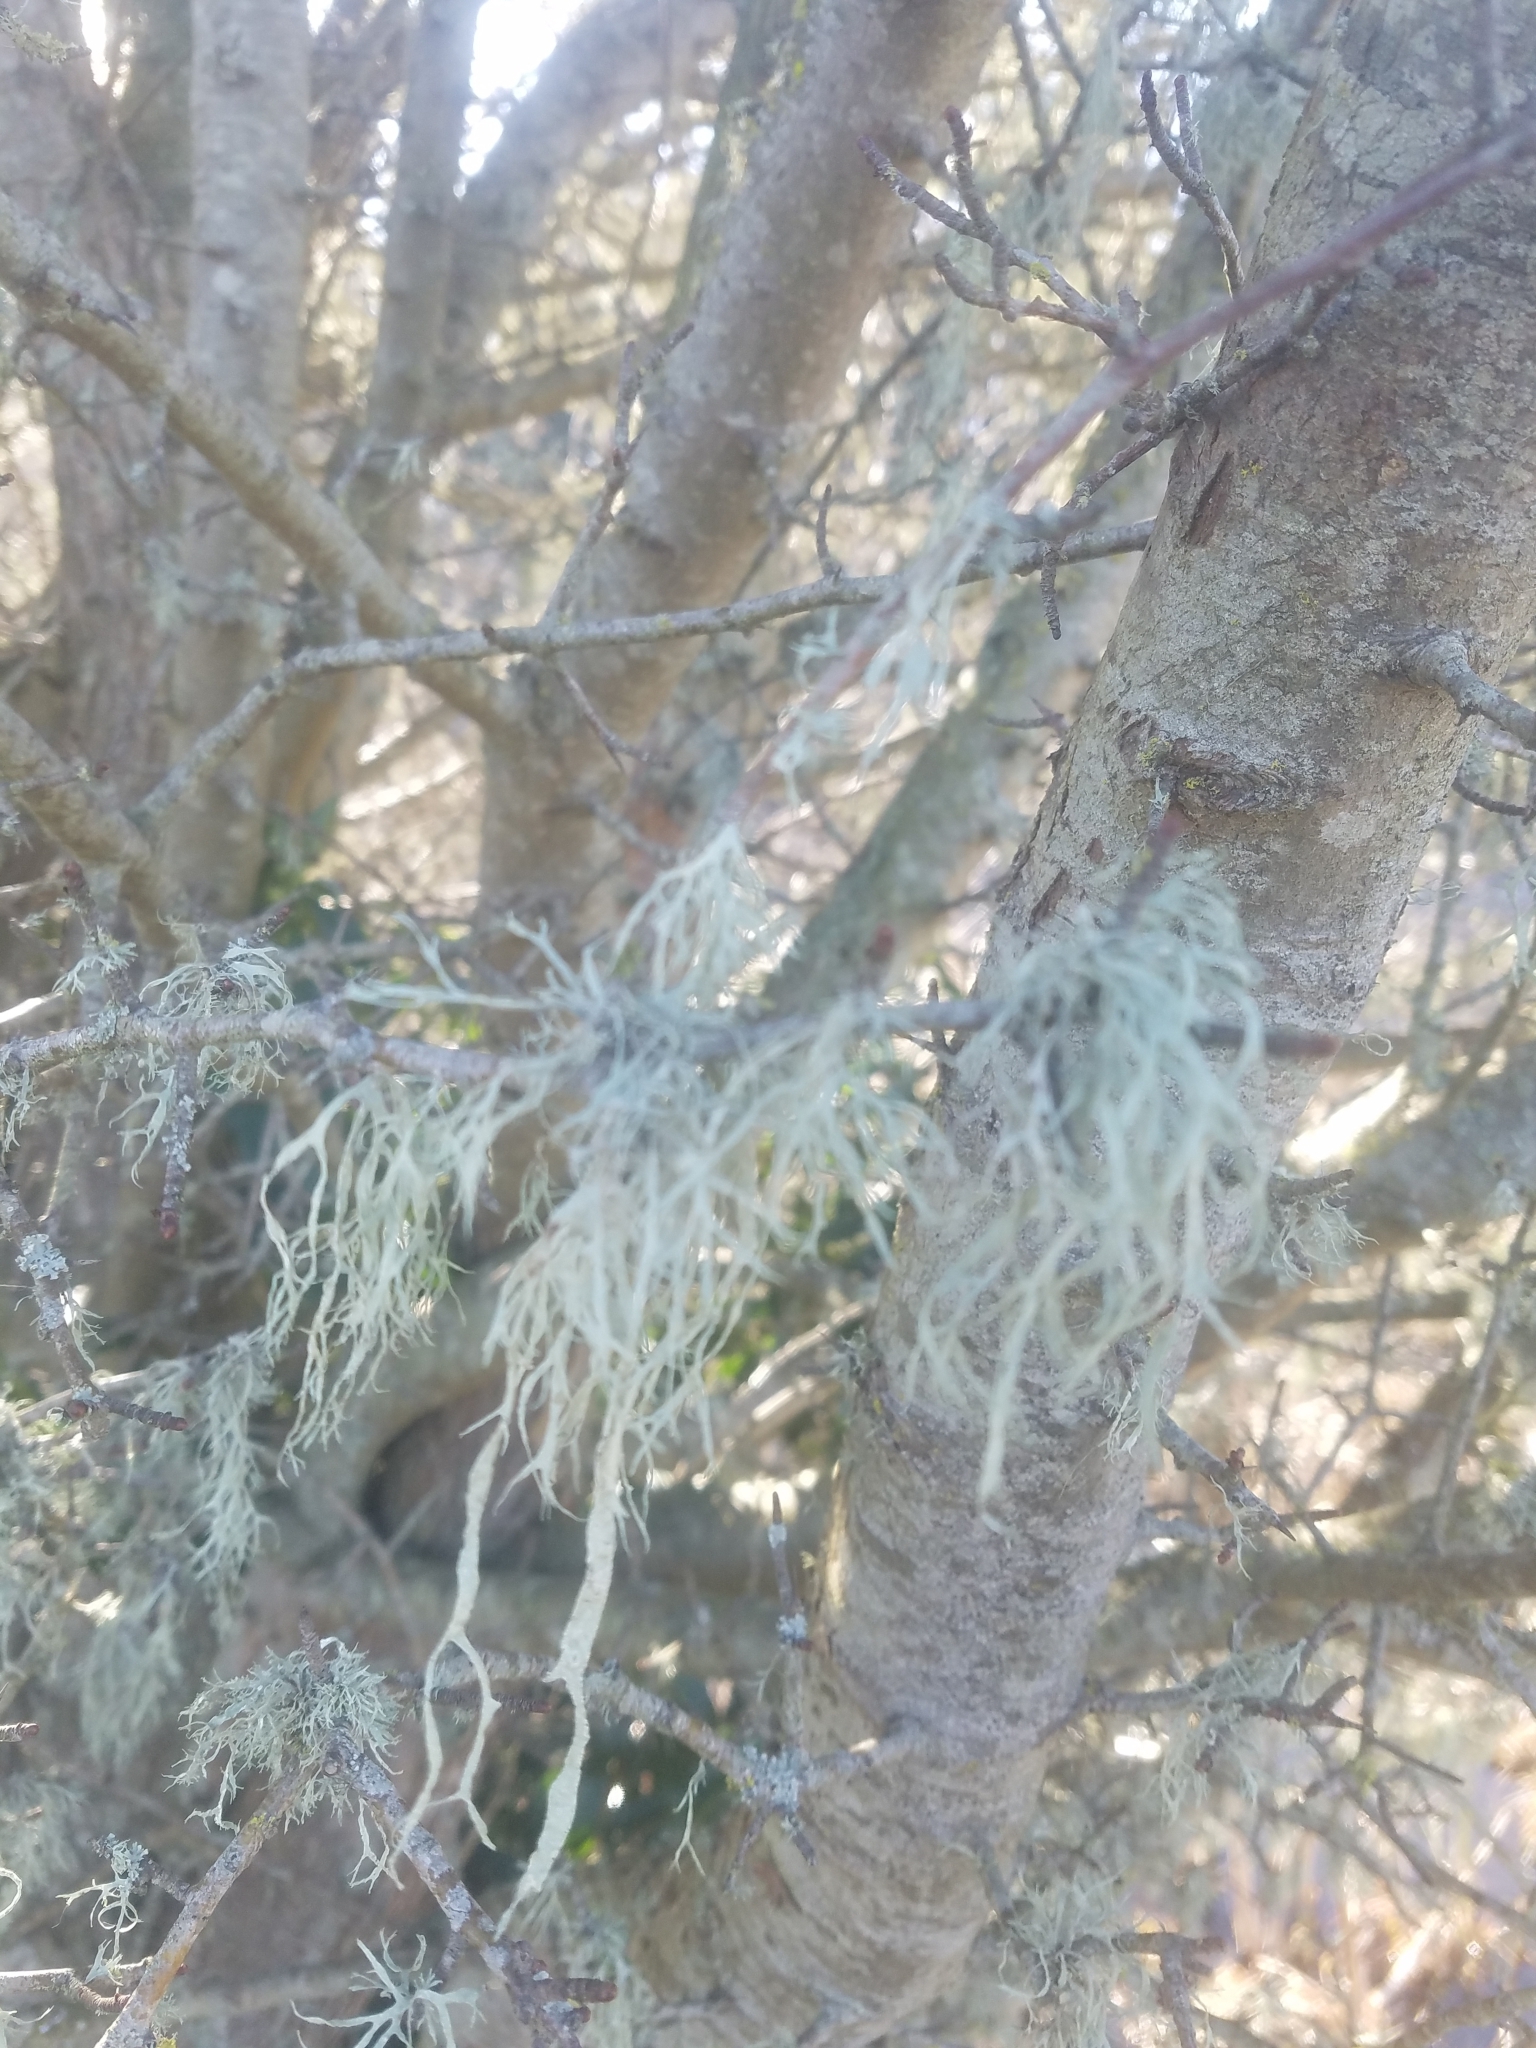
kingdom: Fungi
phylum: Ascomycota
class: Lecanoromycetes
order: Lecanorales
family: Ramalinaceae
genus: Ramalina
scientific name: Ramalina subleptocarpha
